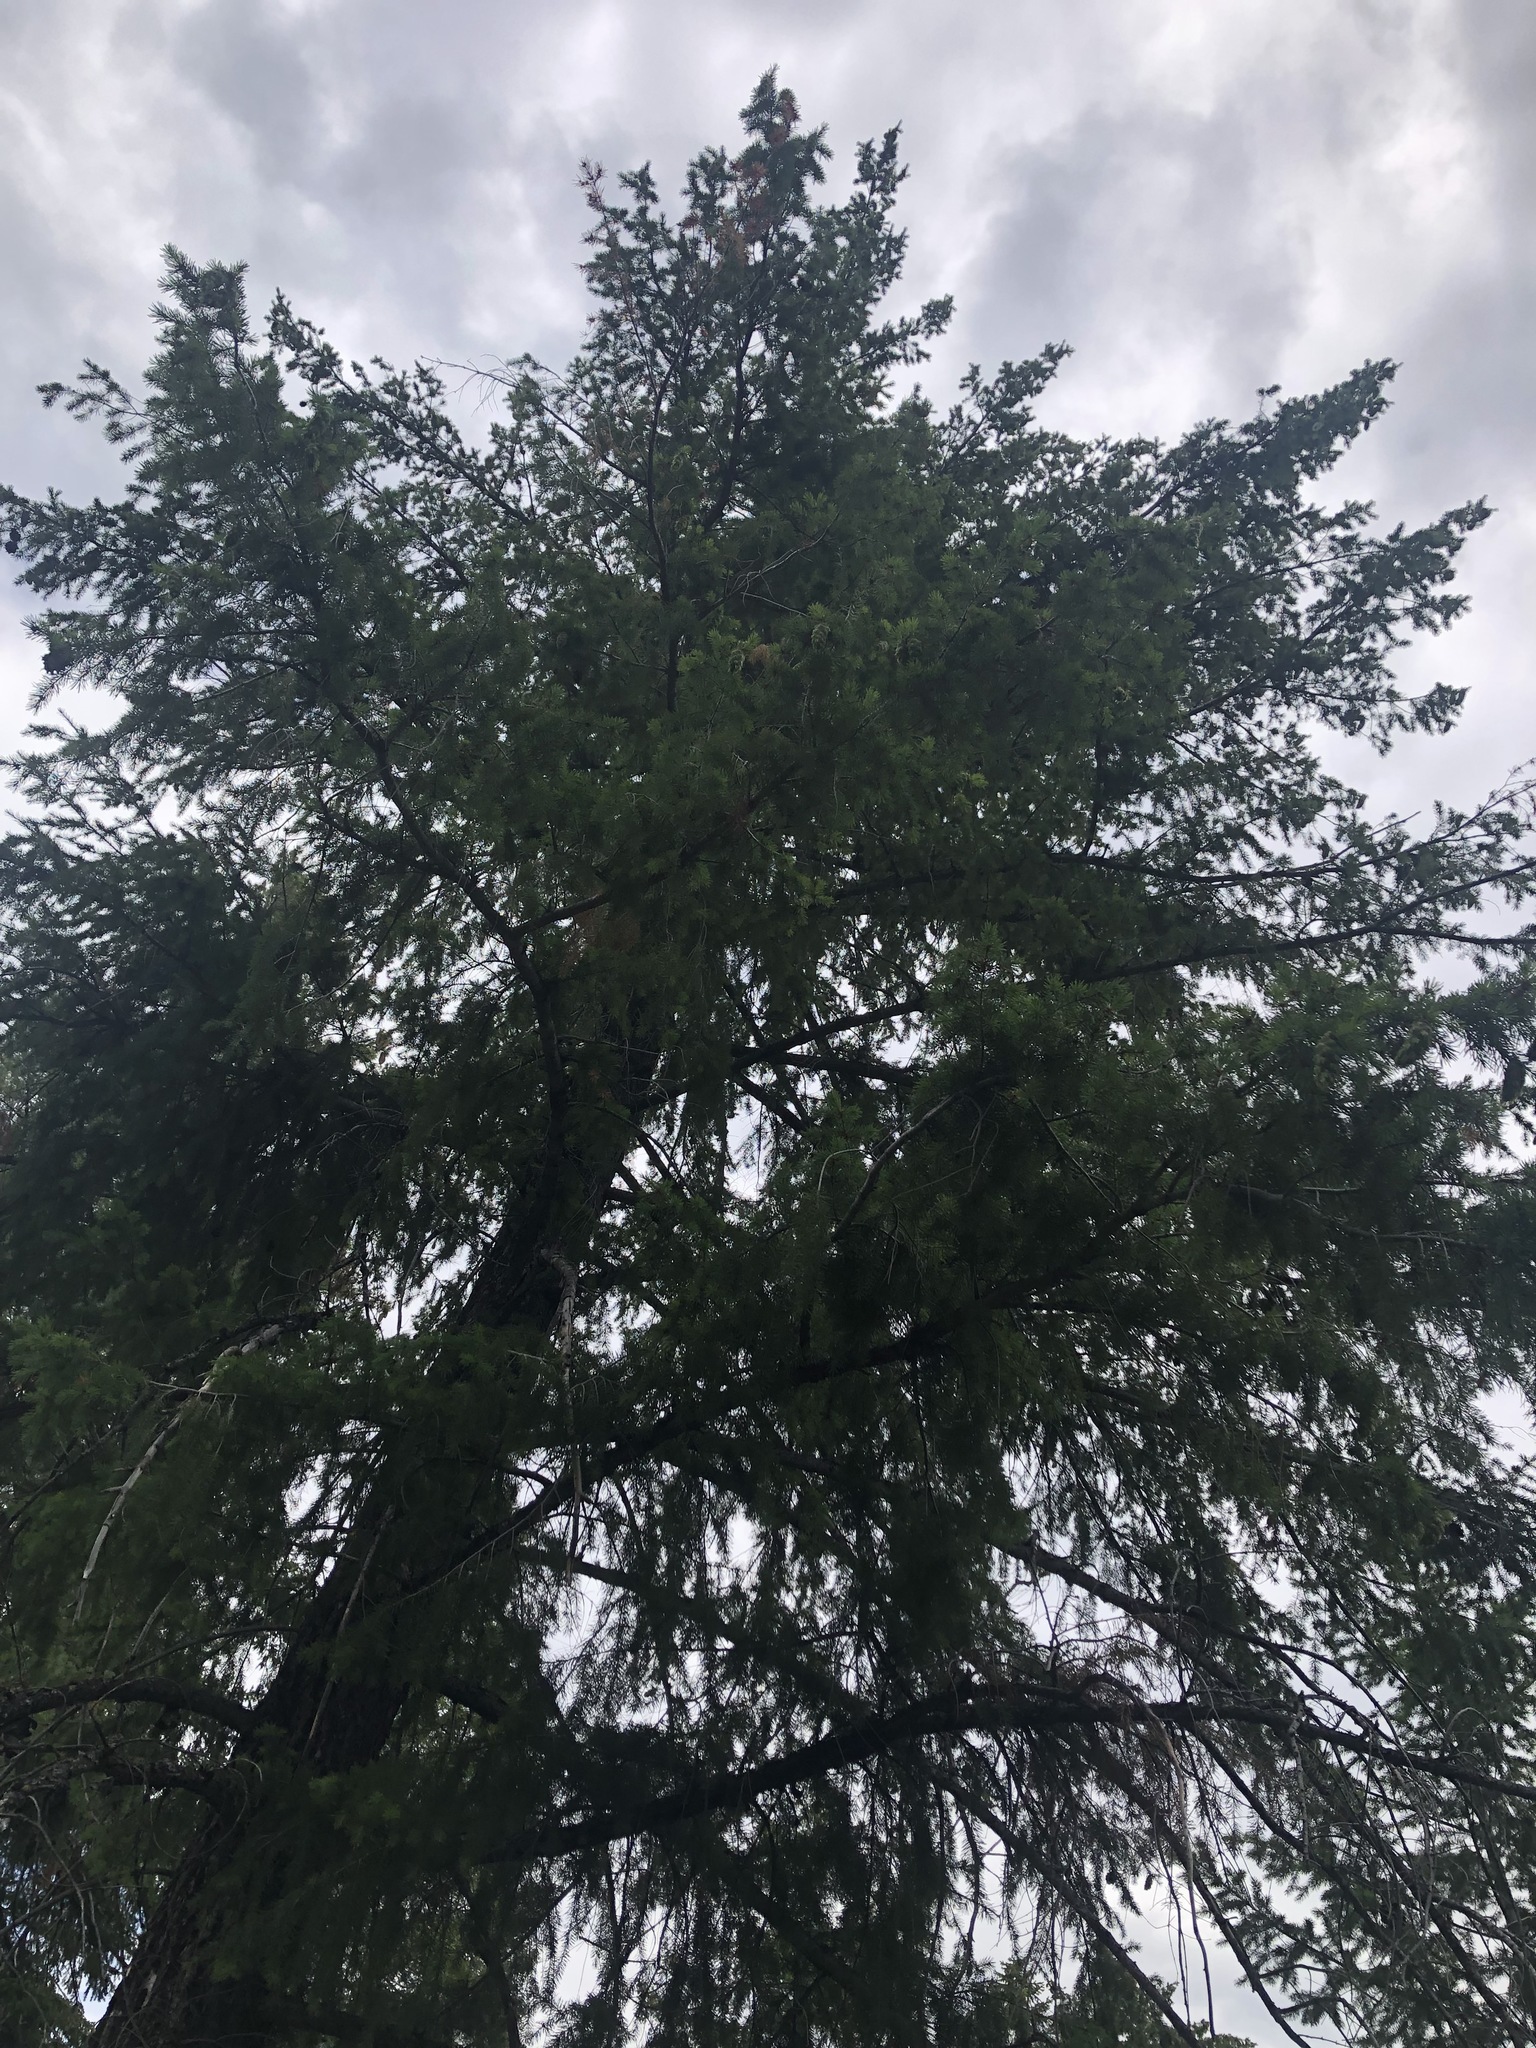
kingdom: Plantae
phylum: Tracheophyta
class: Pinopsida
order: Pinales
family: Pinaceae
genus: Pseudotsuga
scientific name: Pseudotsuga menziesii
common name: Douglas fir
